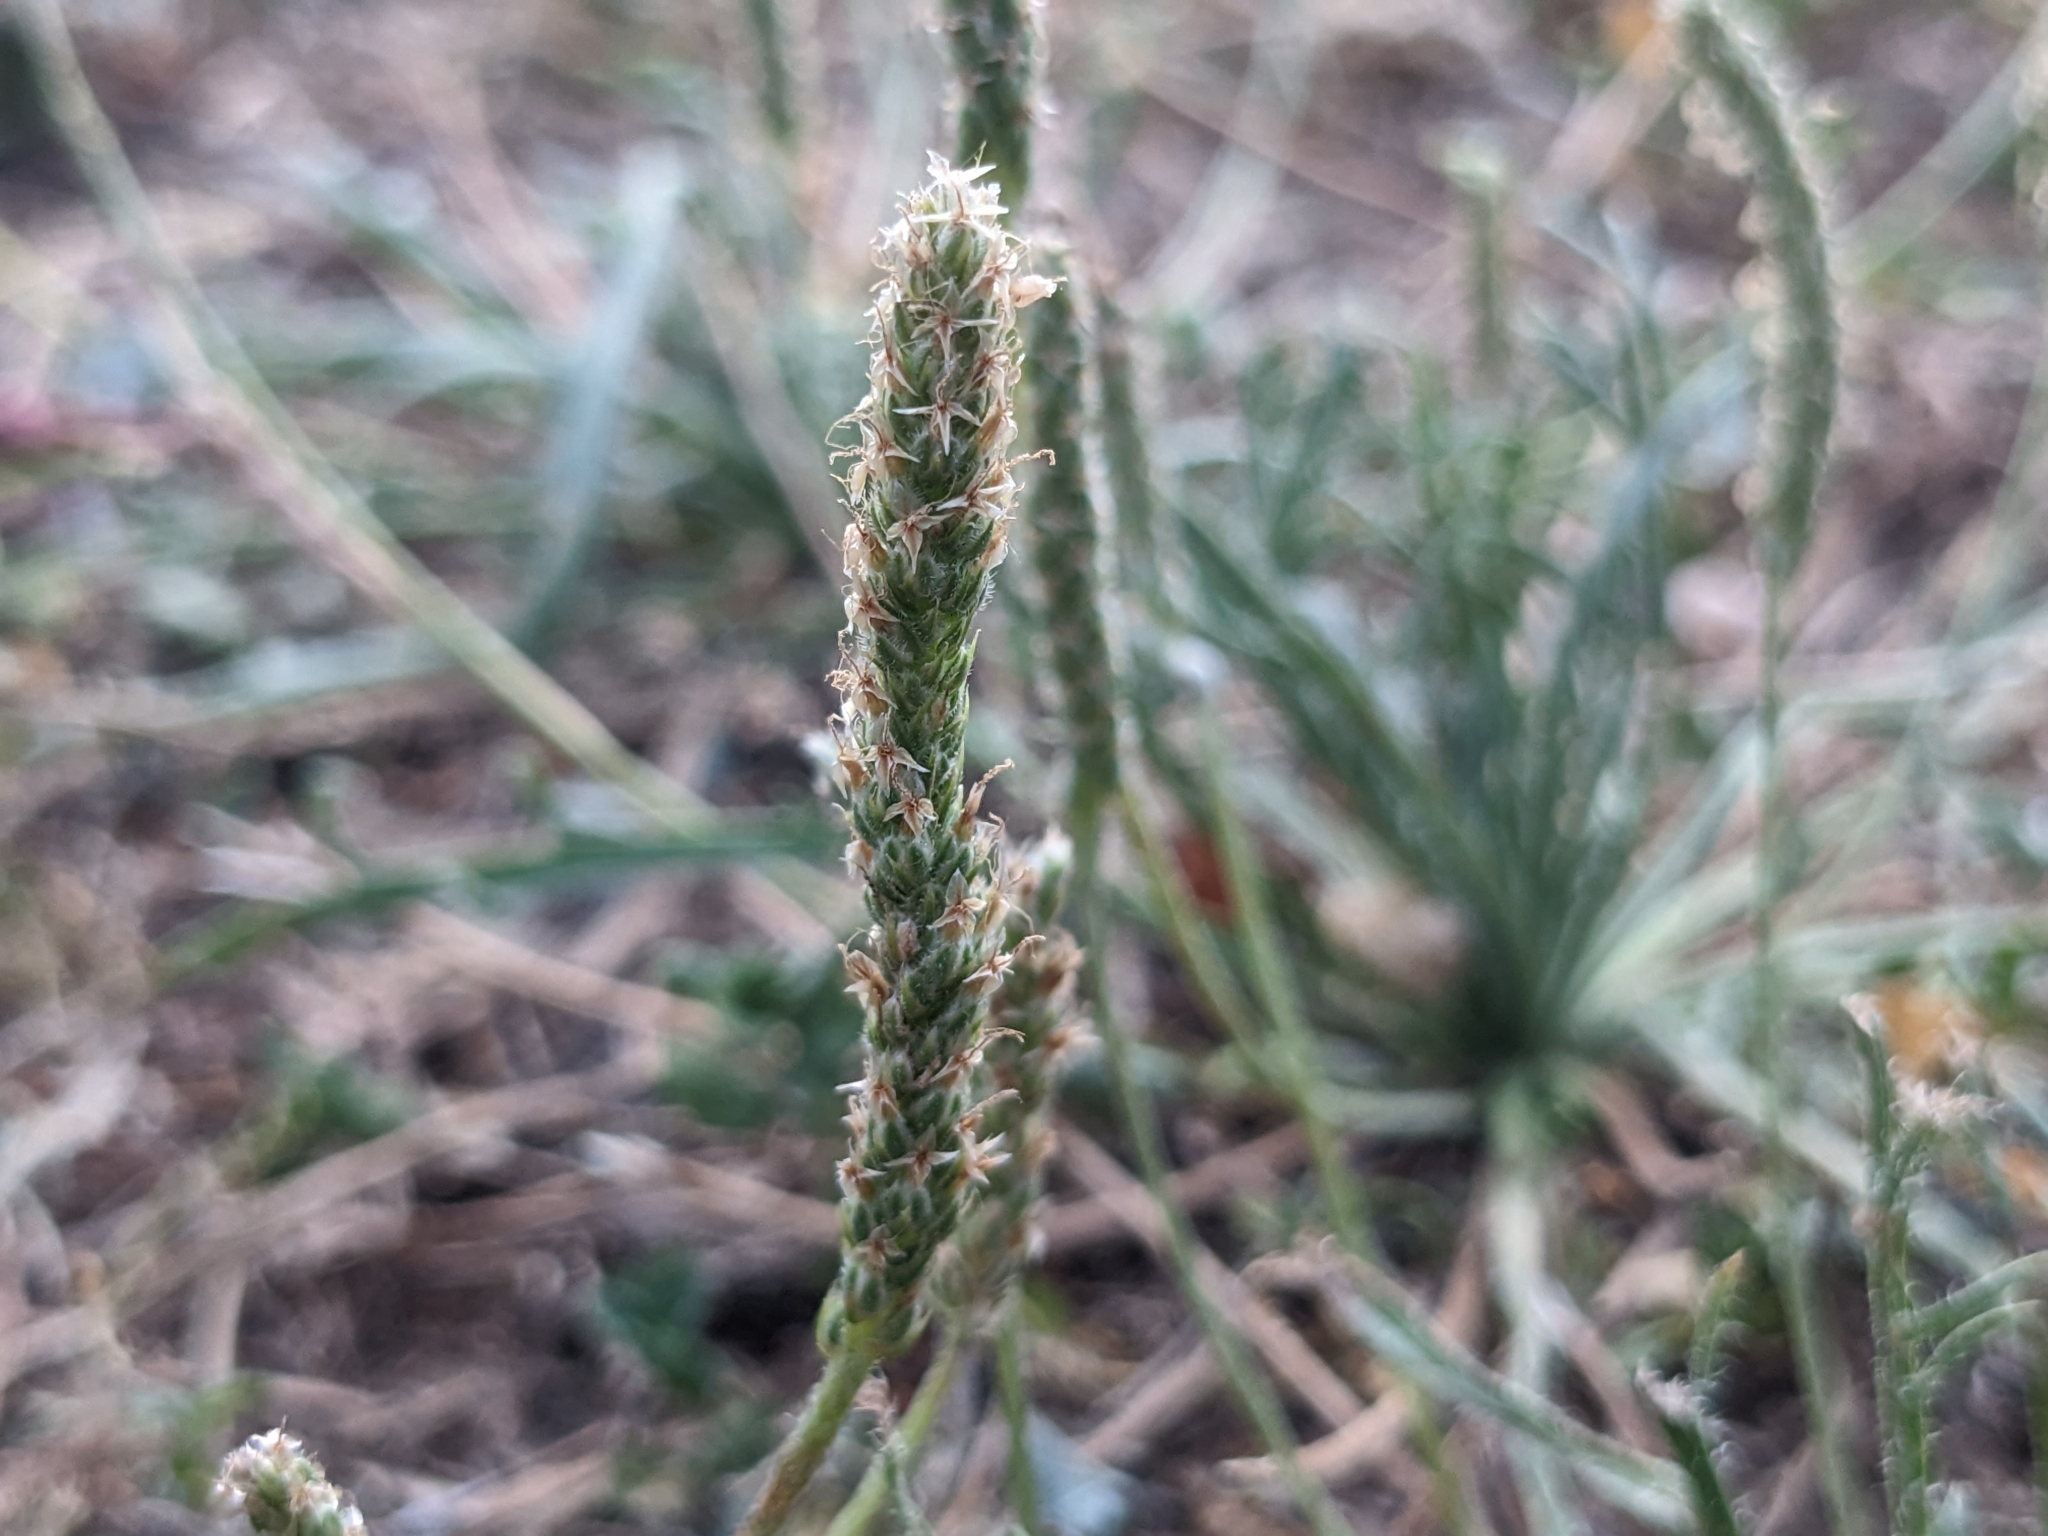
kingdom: Plantae
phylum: Tracheophyta
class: Magnoliopsida
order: Lamiales
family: Plantaginaceae
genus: Plantago
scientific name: Plantago coronopus
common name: Buck's-horn plantain
